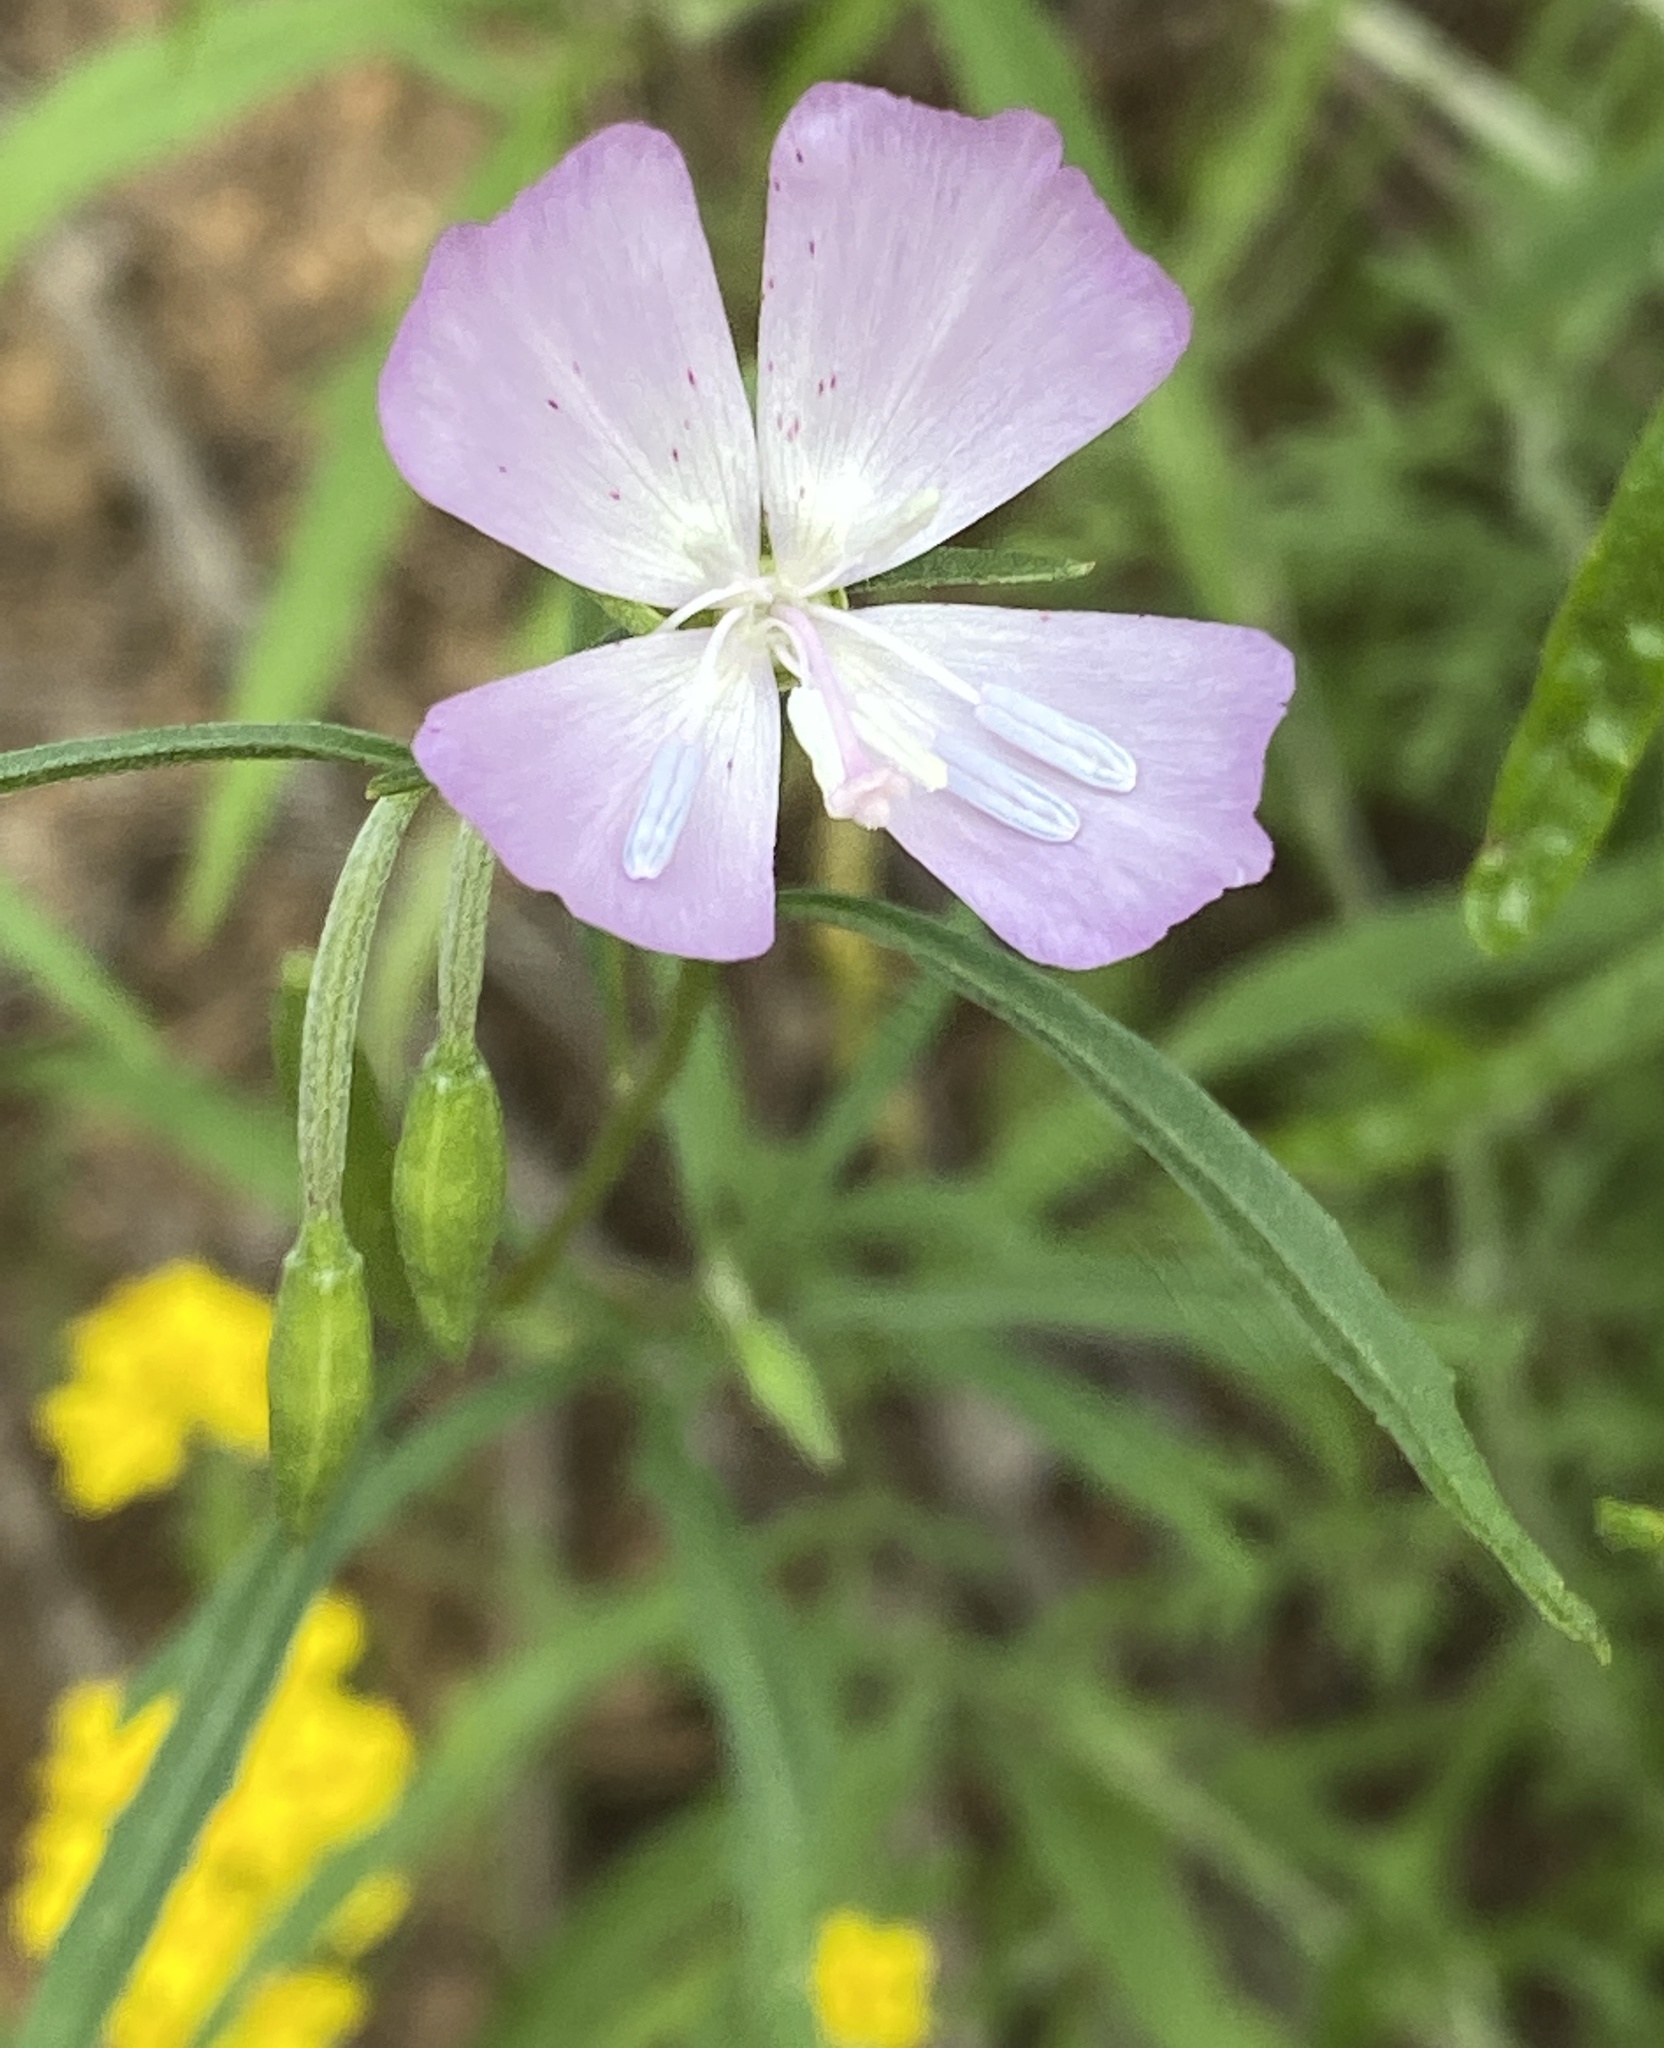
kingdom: Plantae
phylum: Tracheophyta
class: Magnoliopsida
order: Myrtales
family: Onagraceae
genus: Clarkia
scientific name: Clarkia bottae
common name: Punch-bowl godetia
